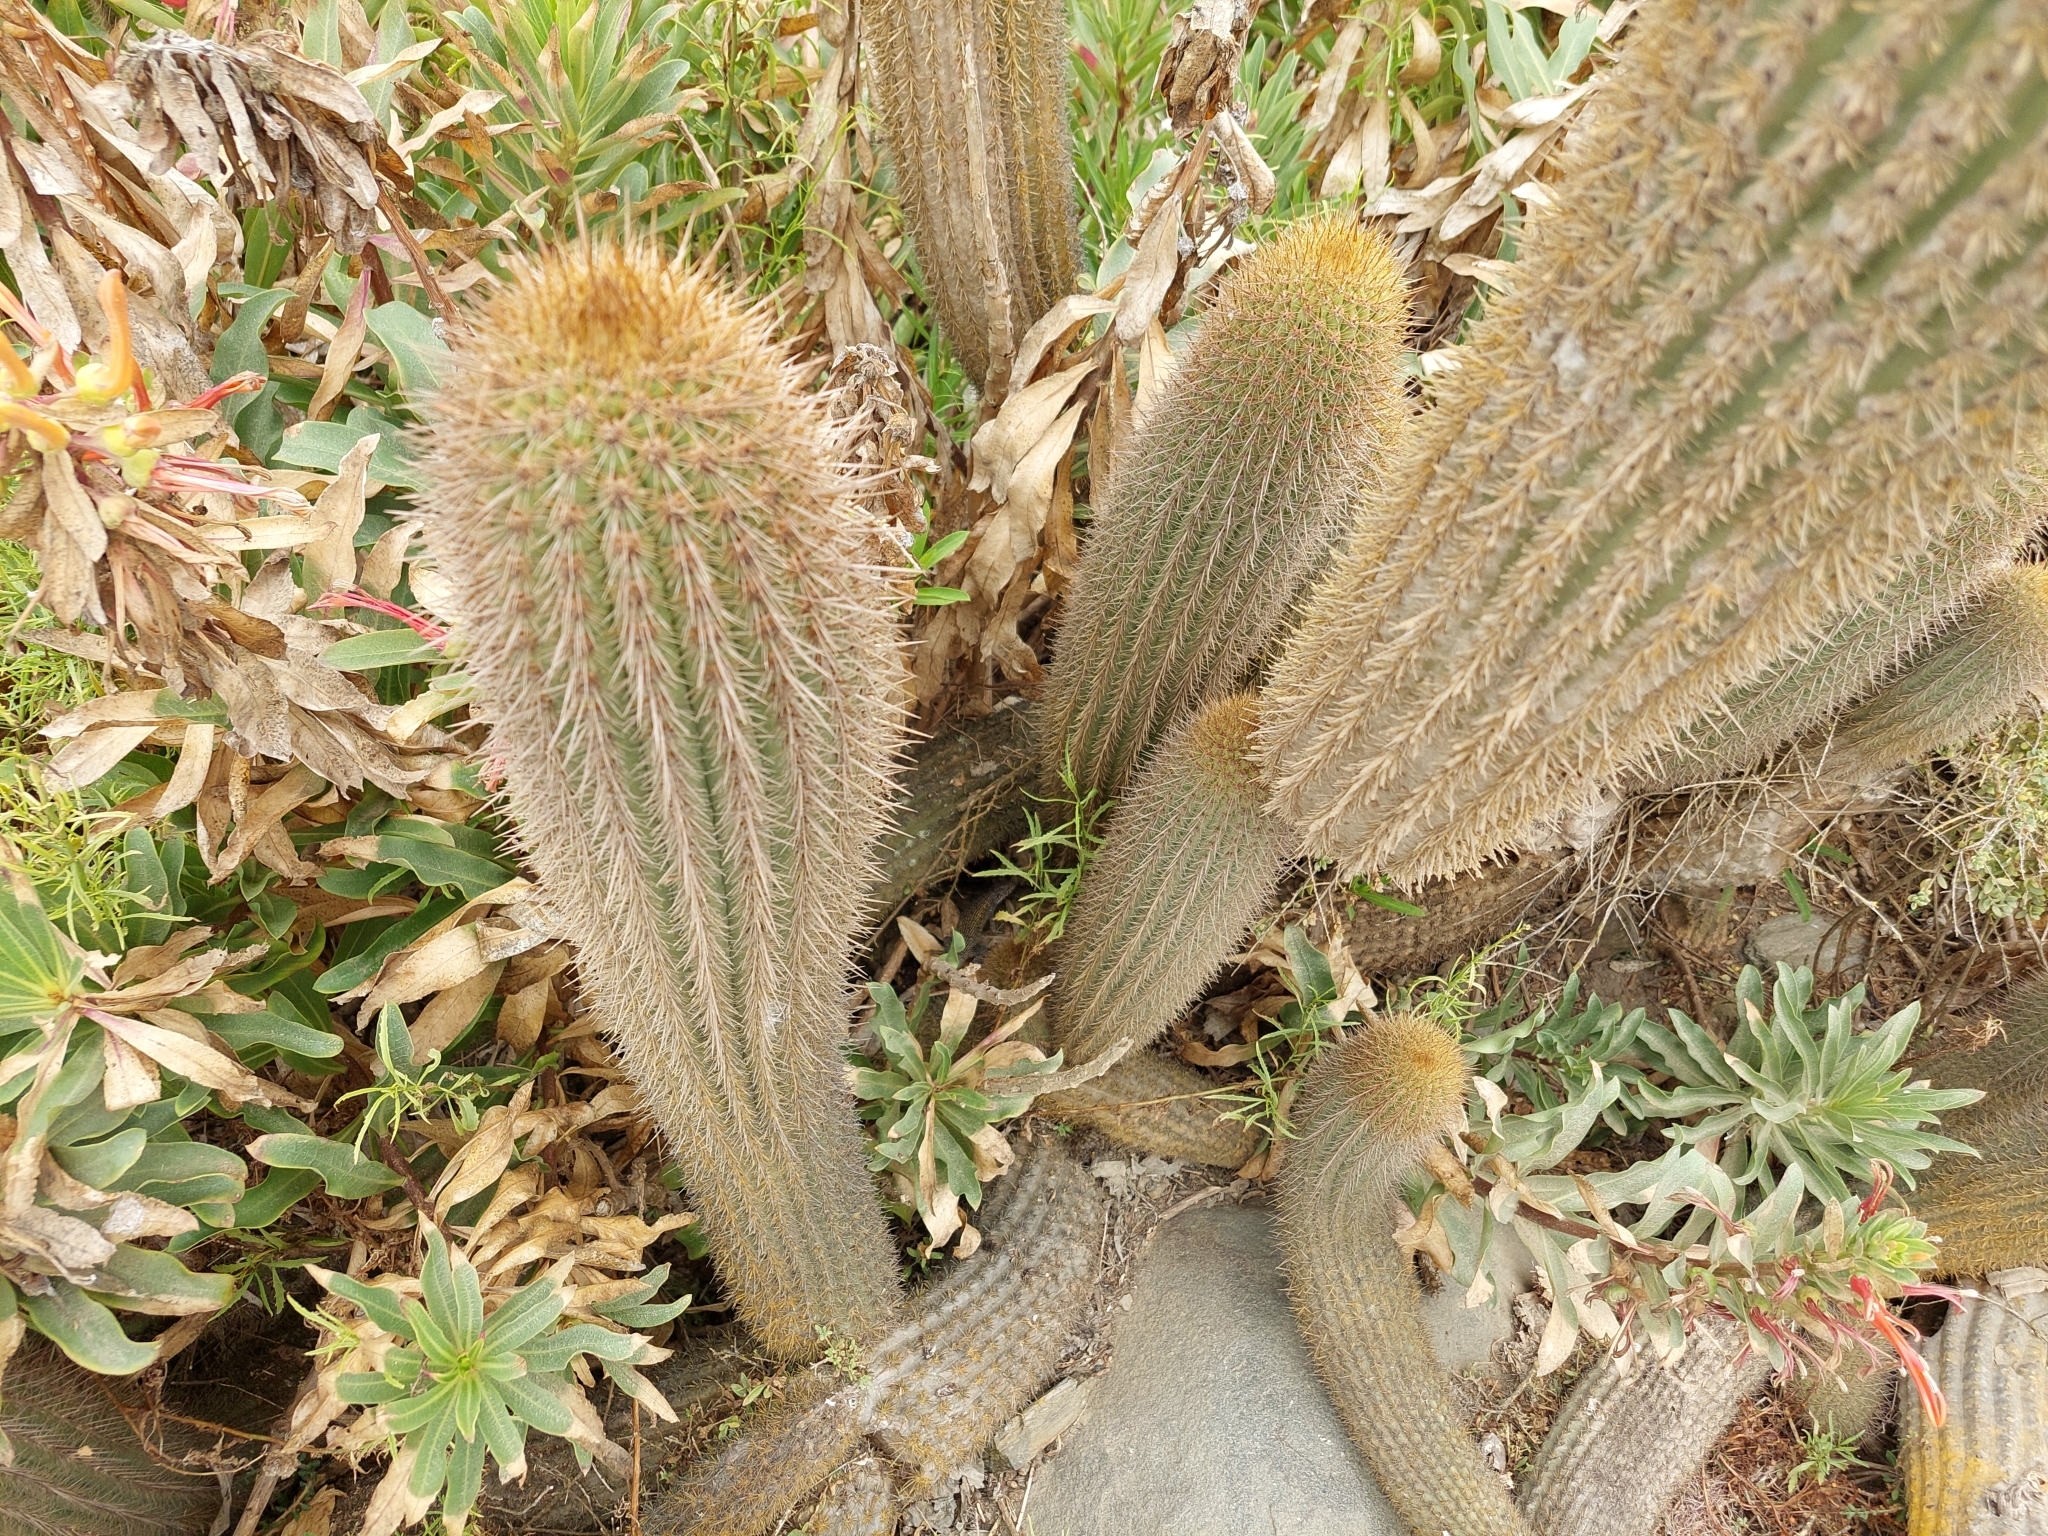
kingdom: Animalia
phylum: Chordata
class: Squamata
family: Liolaemidae
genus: Liolaemus
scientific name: Liolaemus nitidus
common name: Shining tree iguana
